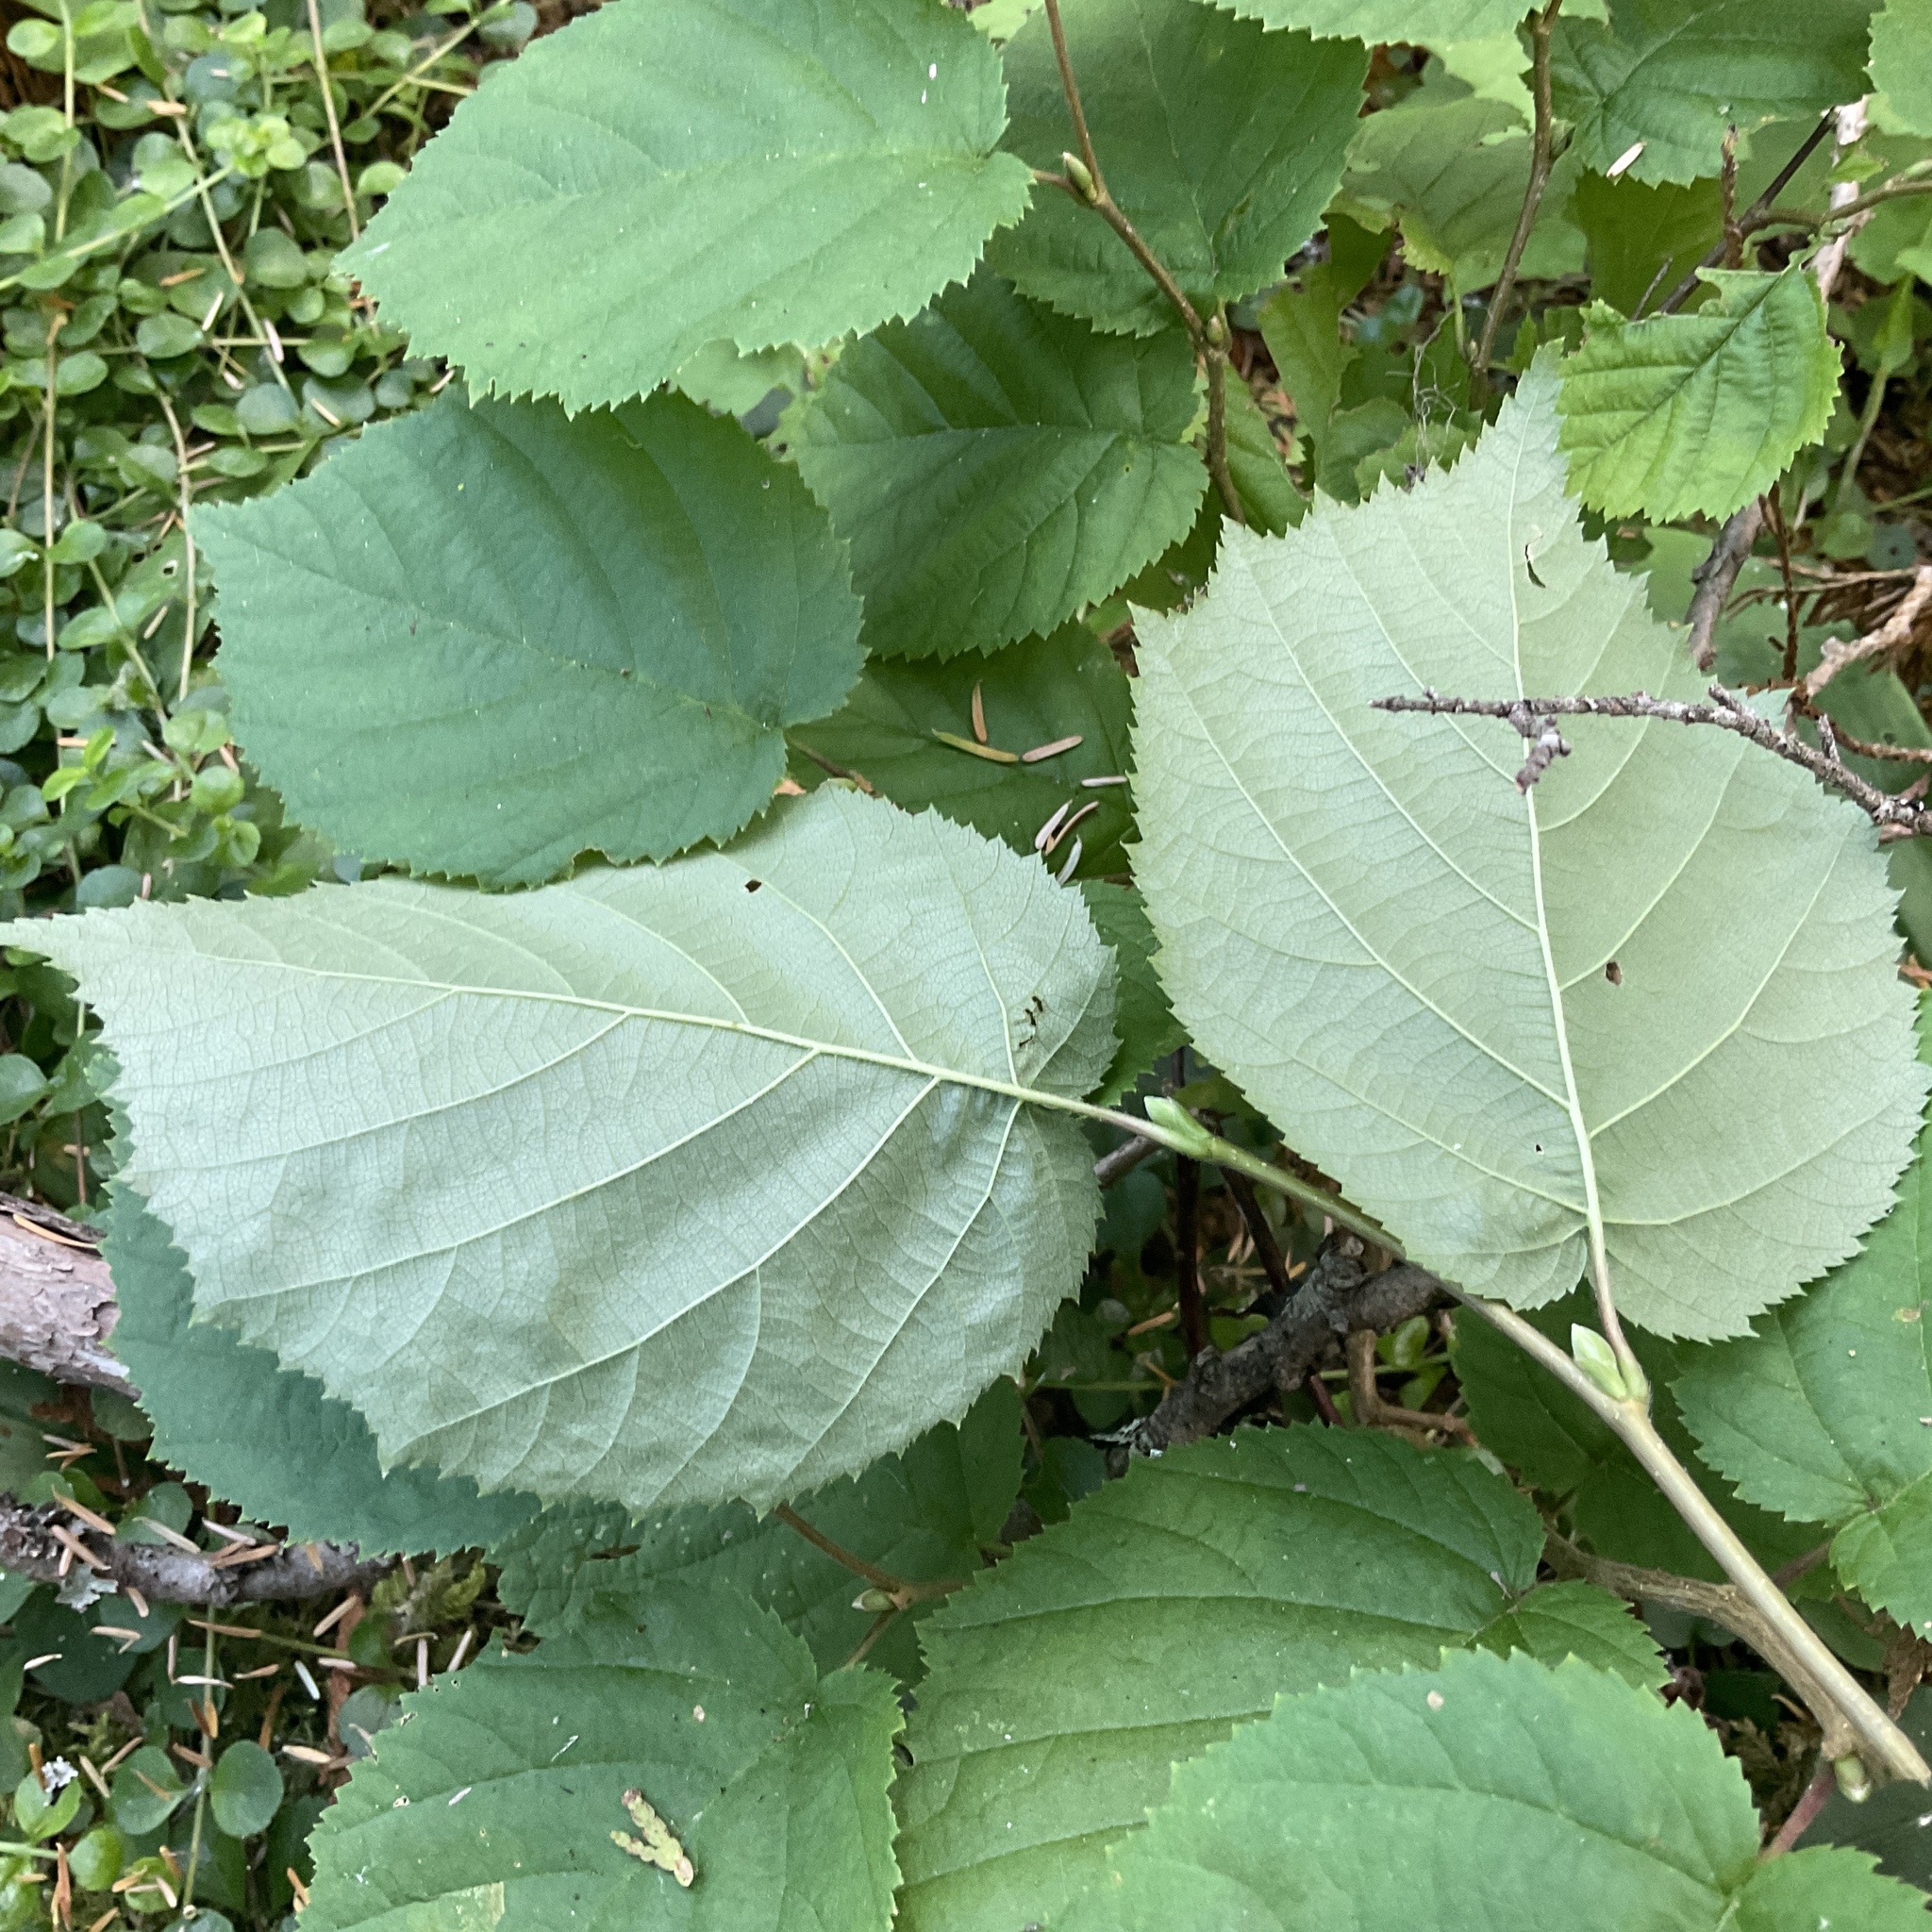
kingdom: Plantae
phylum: Tracheophyta
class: Magnoliopsida
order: Fagales
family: Betulaceae
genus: Corylus
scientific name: Corylus cornuta
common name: Beaked hazel
